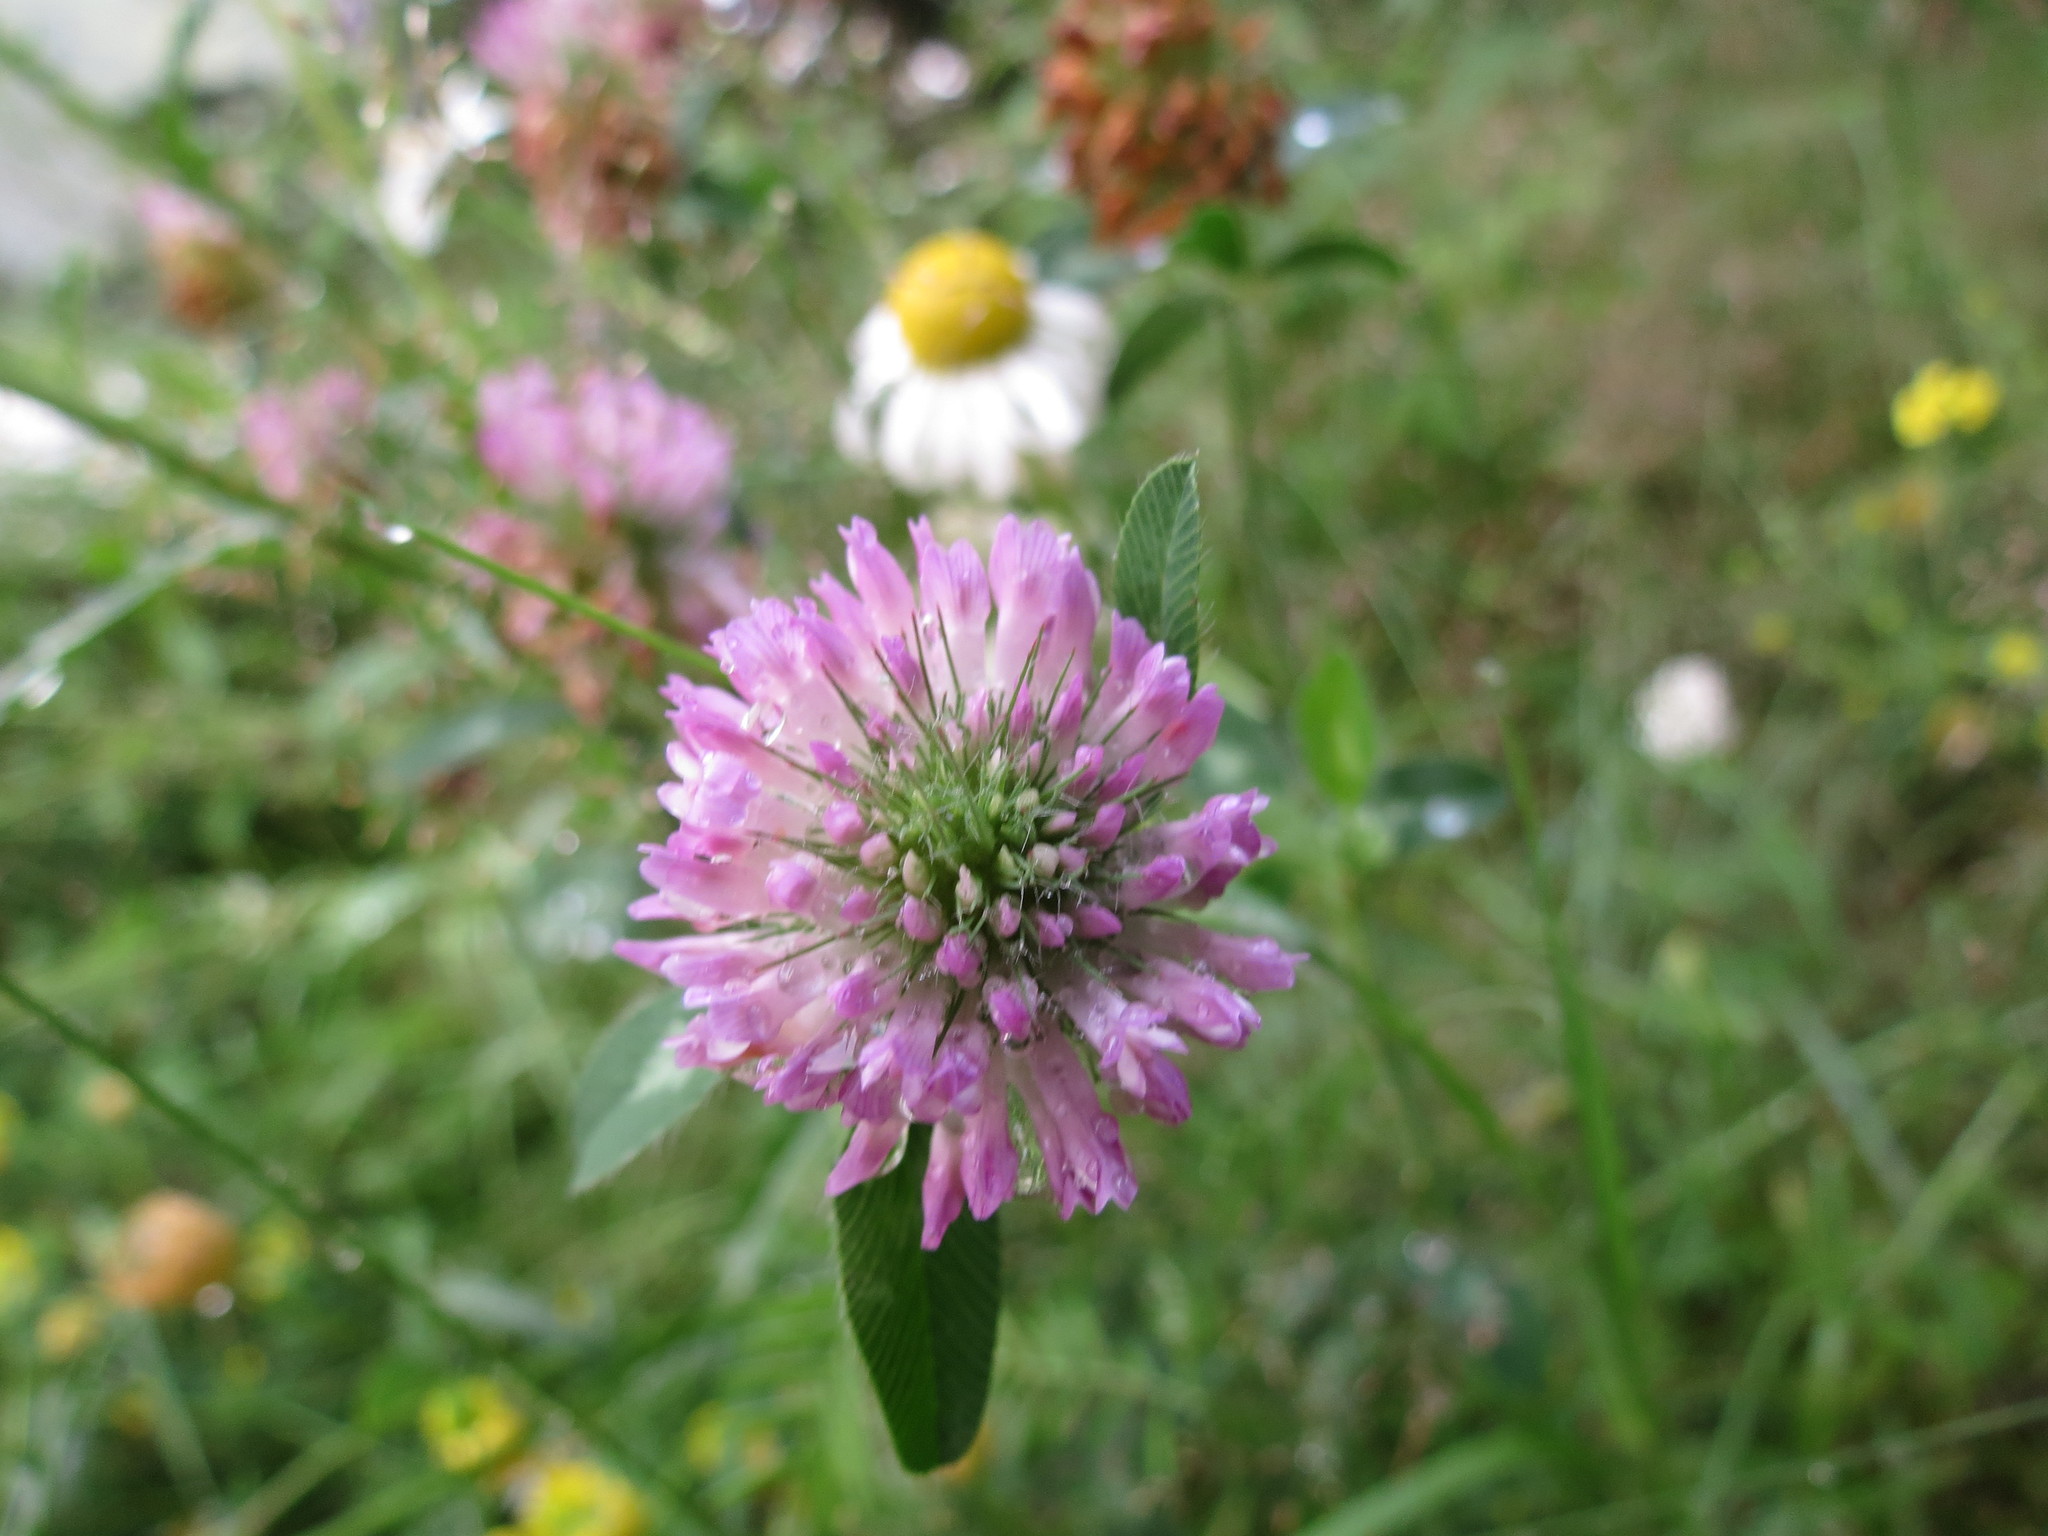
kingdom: Plantae
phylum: Tracheophyta
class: Magnoliopsida
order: Fabales
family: Fabaceae
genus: Trifolium
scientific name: Trifolium pratense
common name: Red clover
